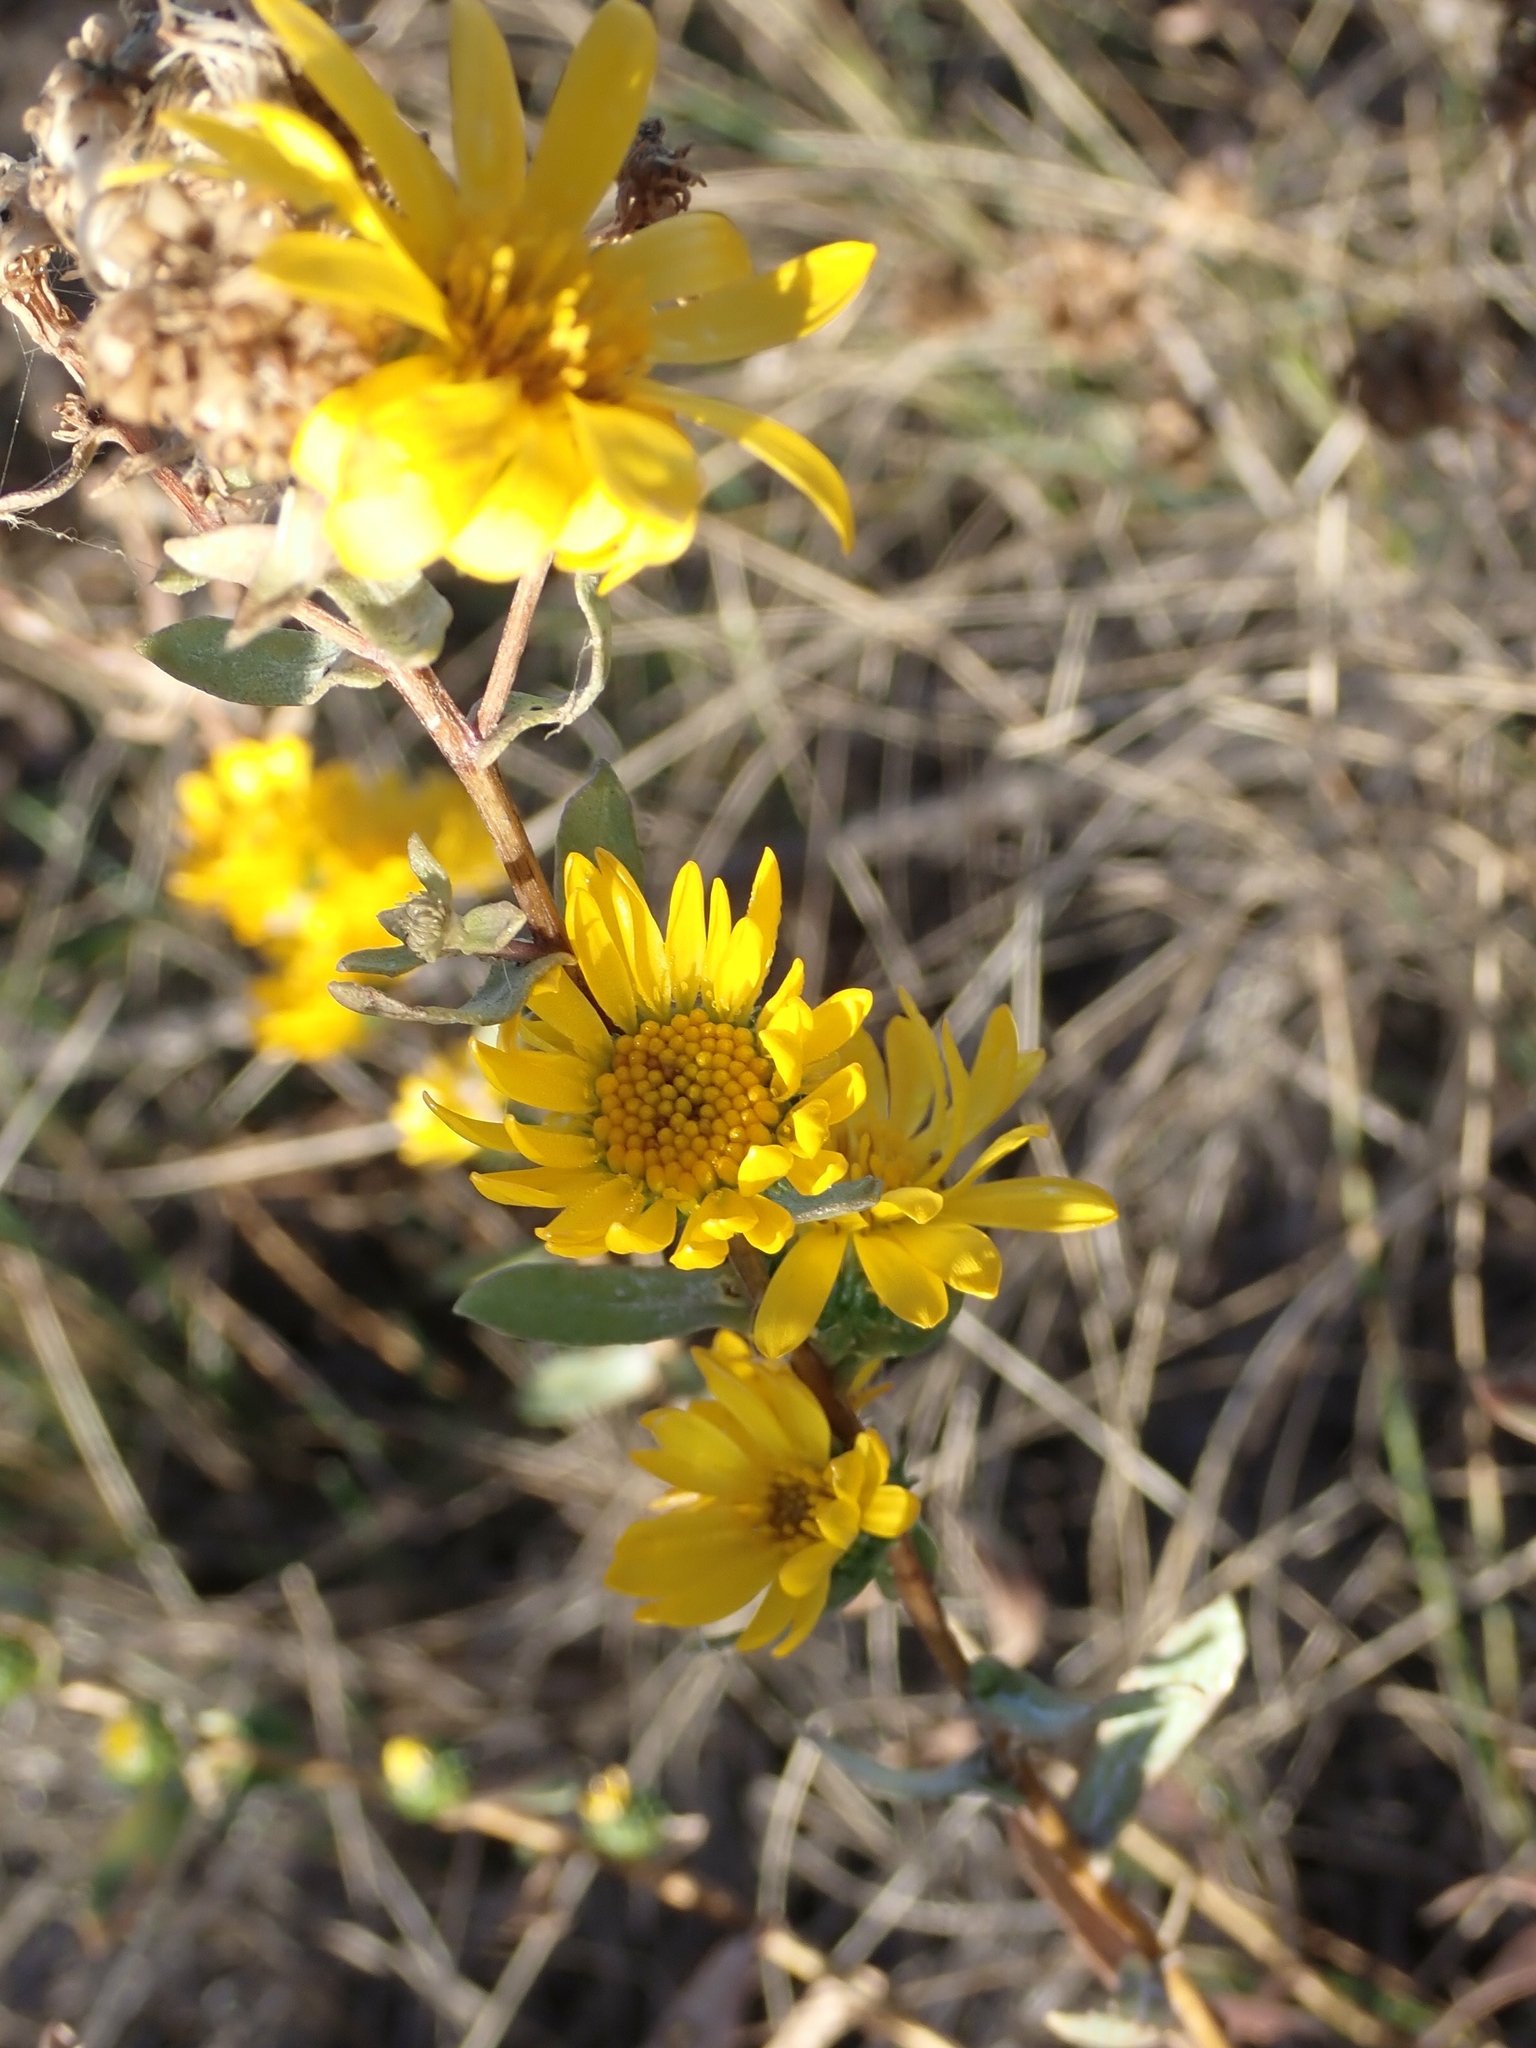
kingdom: Plantae
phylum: Tracheophyta
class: Magnoliopsida
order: Asterales
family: Asteraceae
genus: Grindelia
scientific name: Grindelia squarrosa
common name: Curly-cup gumweed
